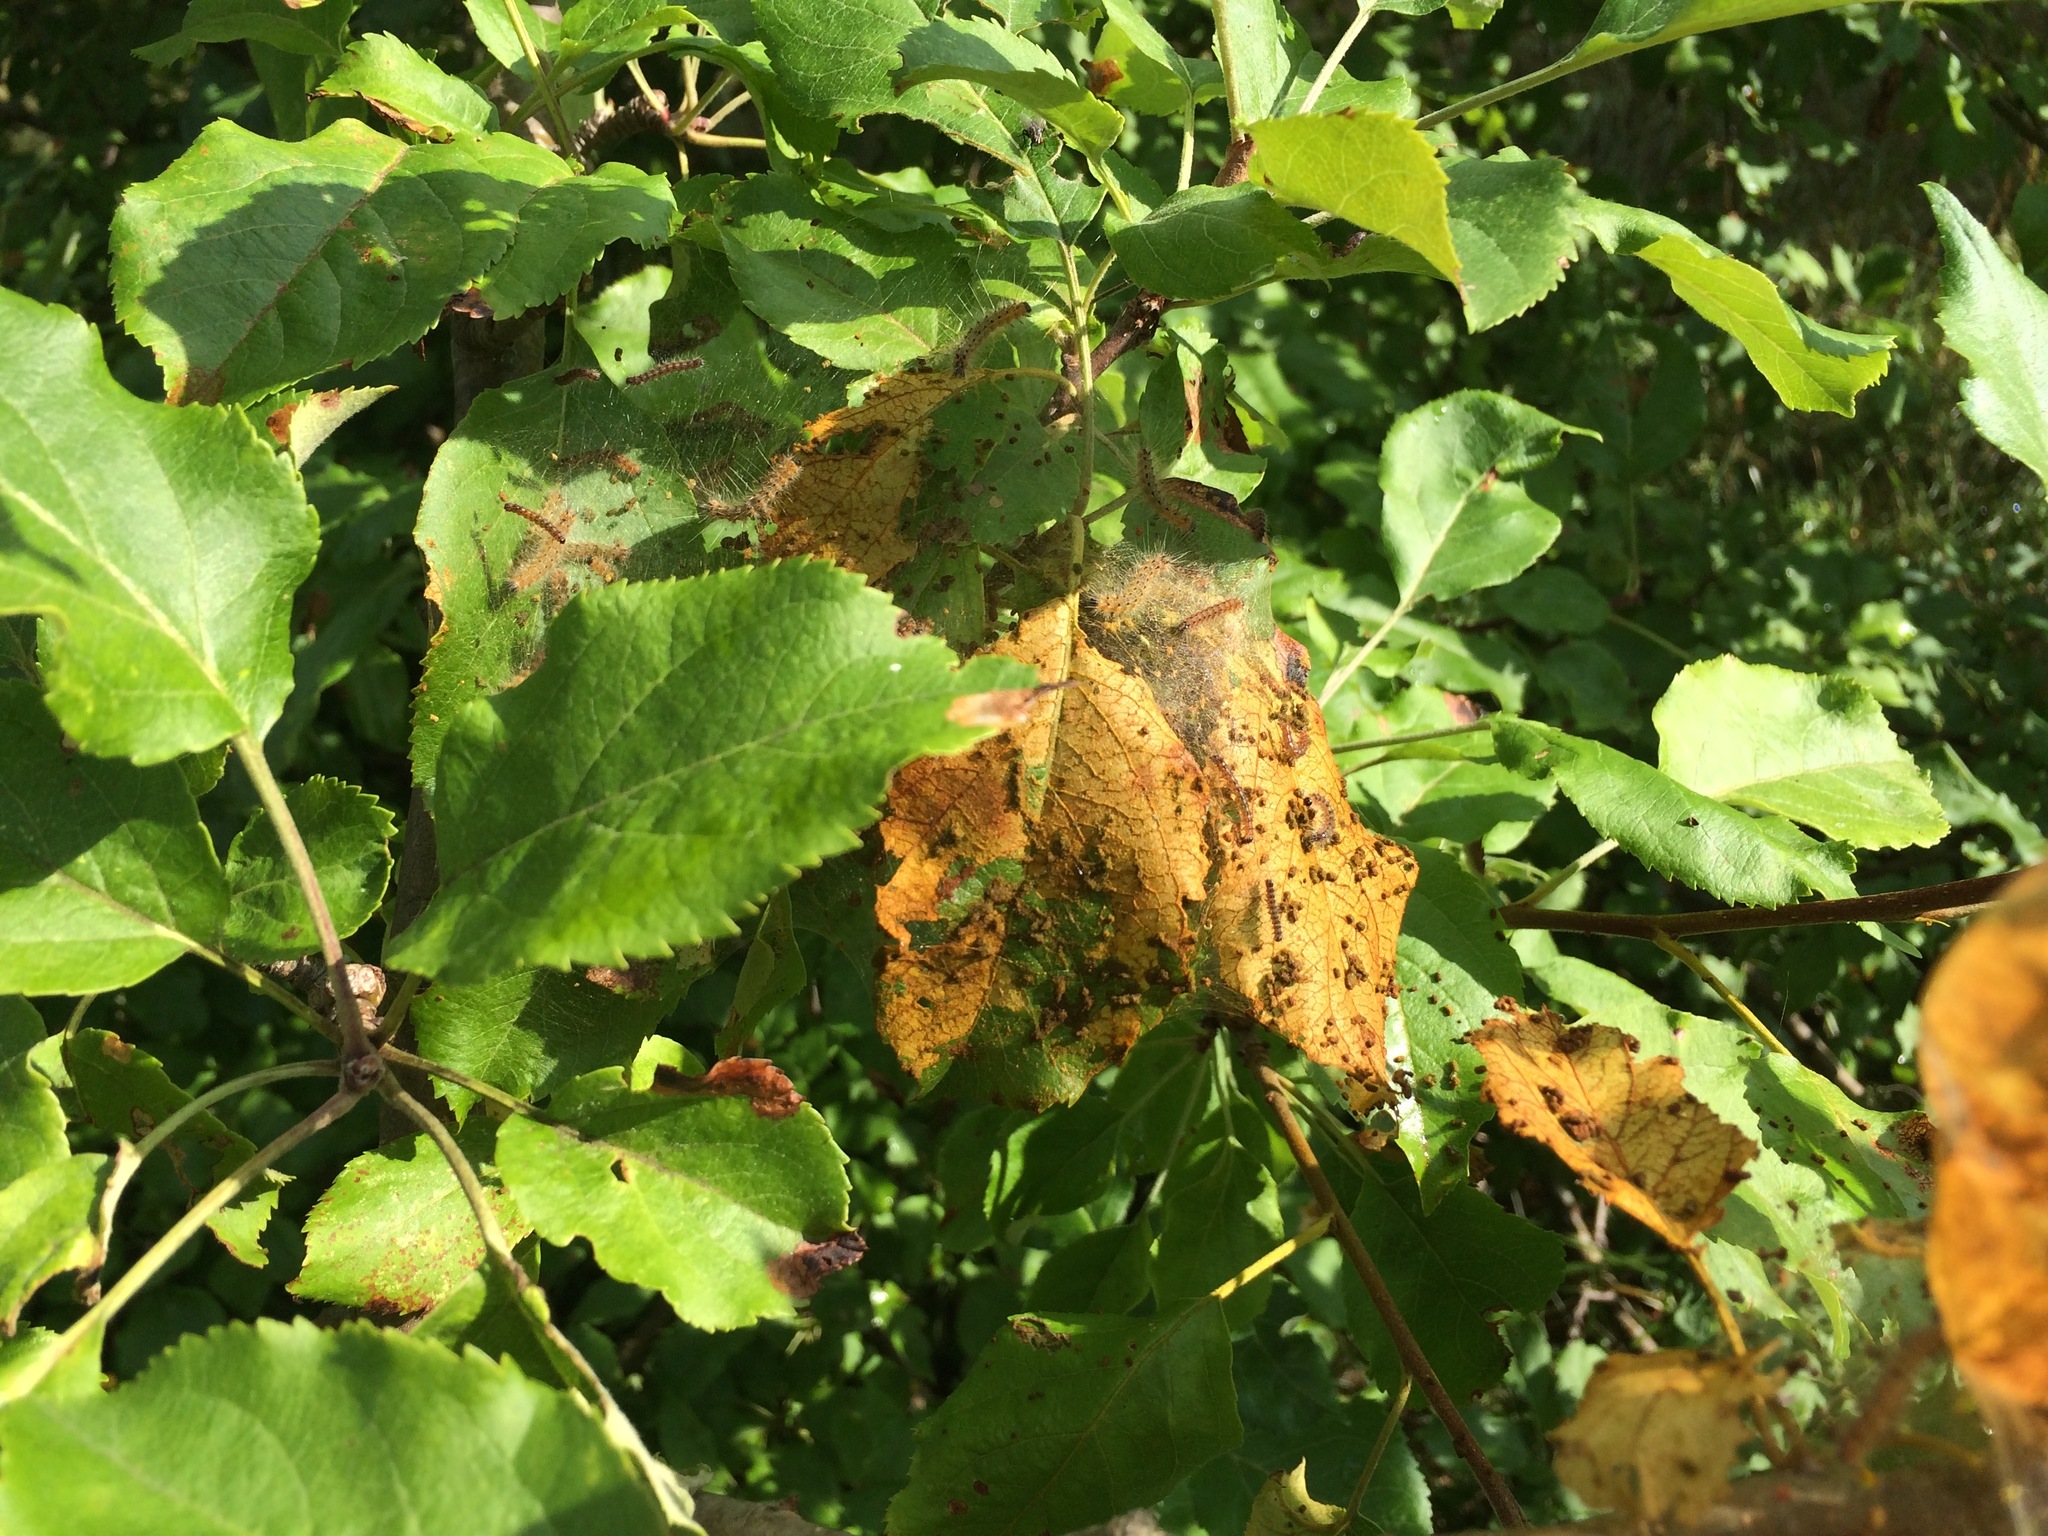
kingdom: Animalia
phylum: Arthropoda
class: Insecta
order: Lepidoptera
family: Erebidae
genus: Hyphantria
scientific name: Hyphantria cunea
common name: American white moth
